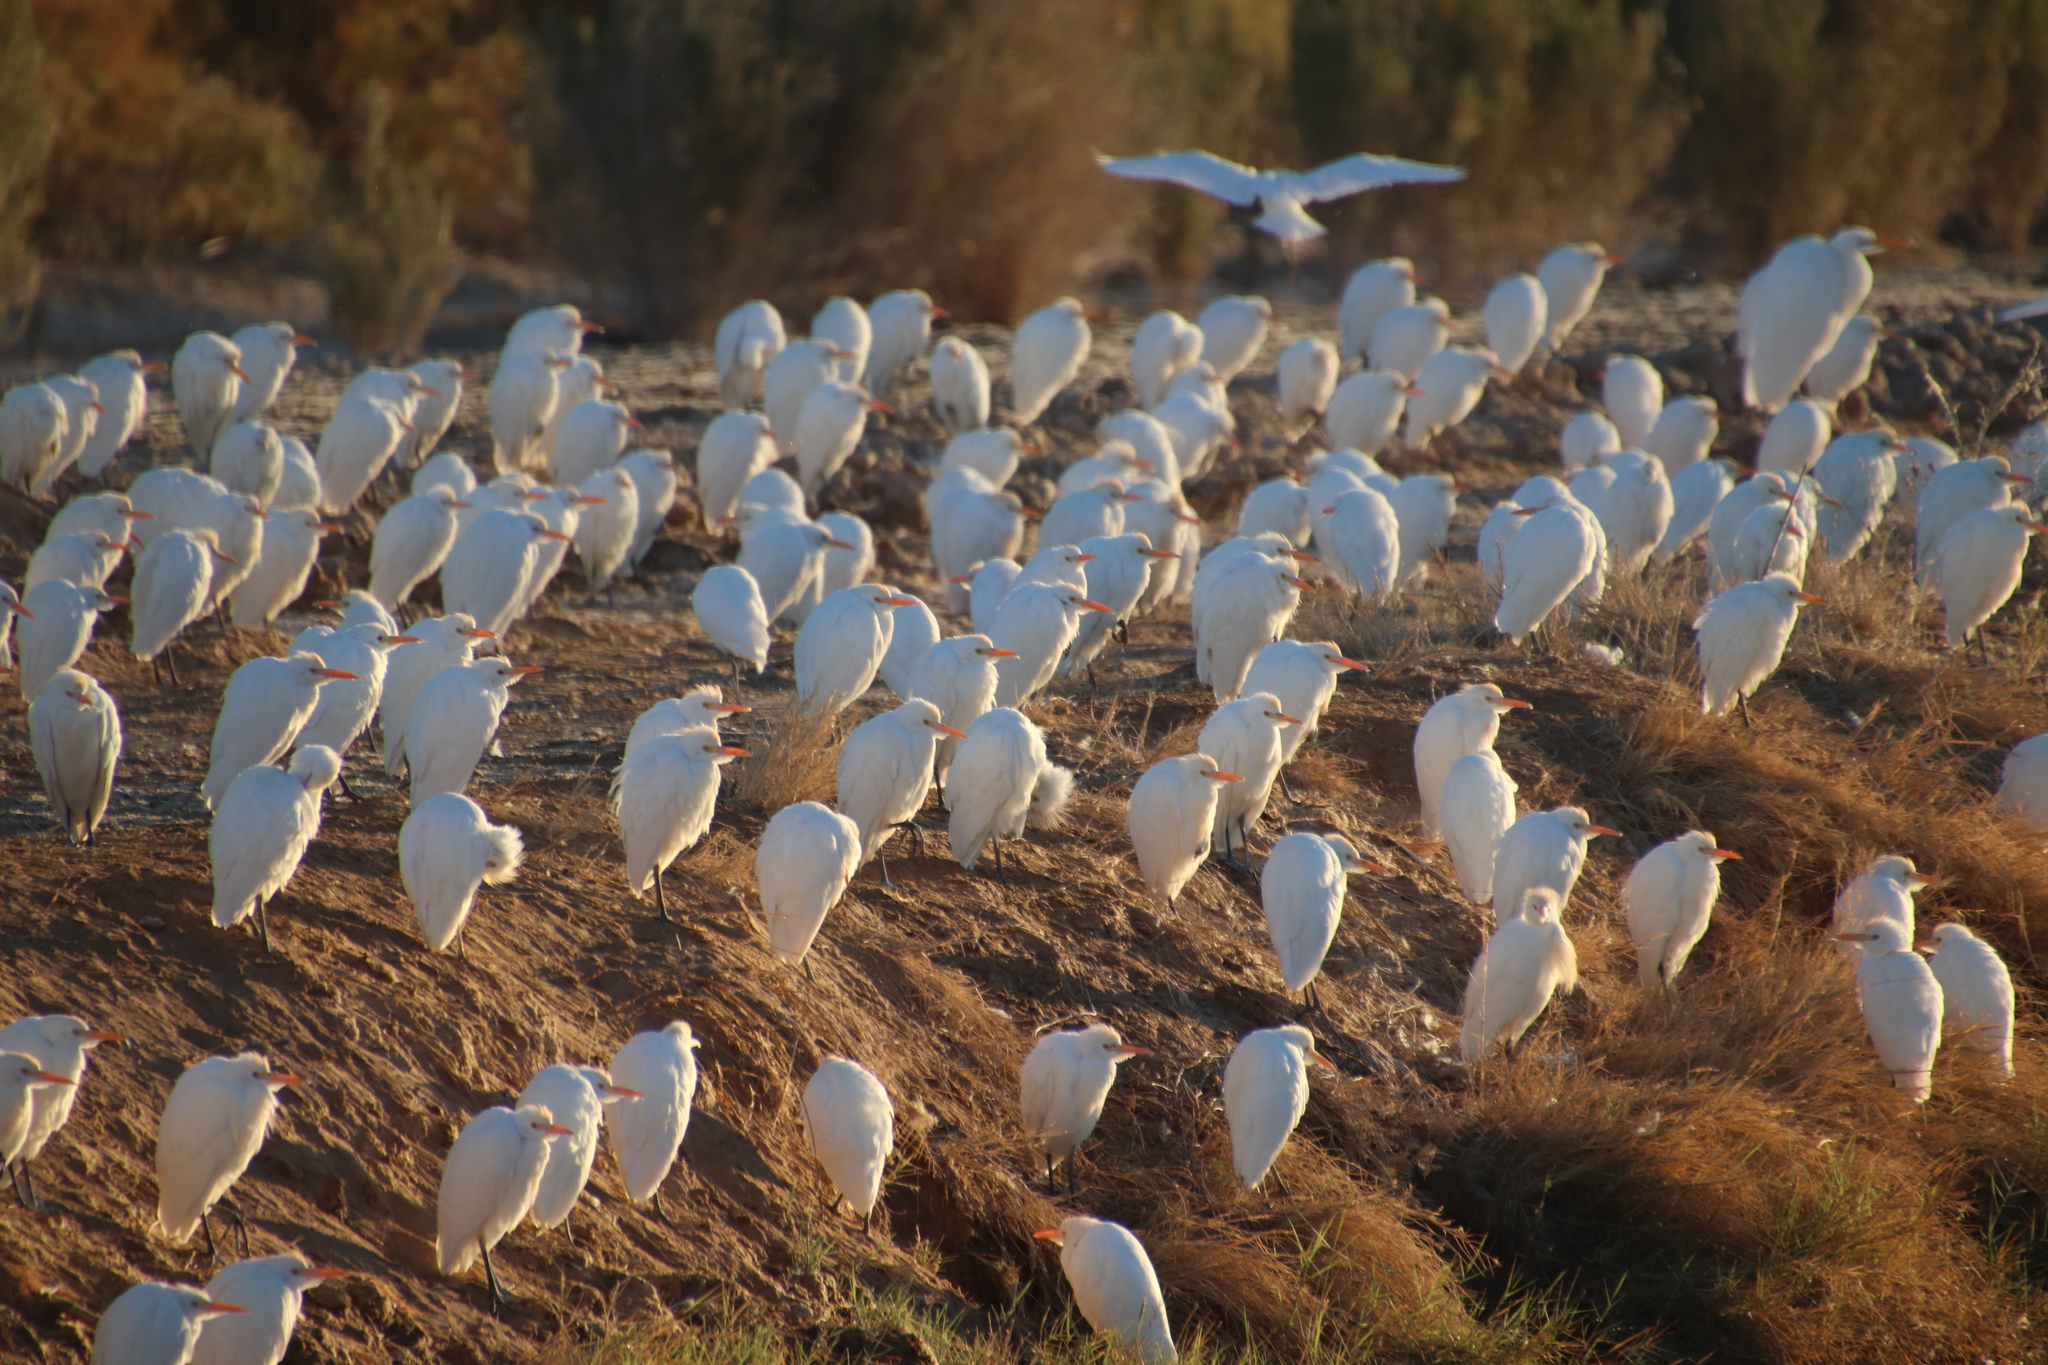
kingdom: Animalia
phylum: Chordata
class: Aves
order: Pelecaniformes
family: Ardeidae
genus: Bubulcus
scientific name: Bubulcus ibis
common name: Cattle egret
